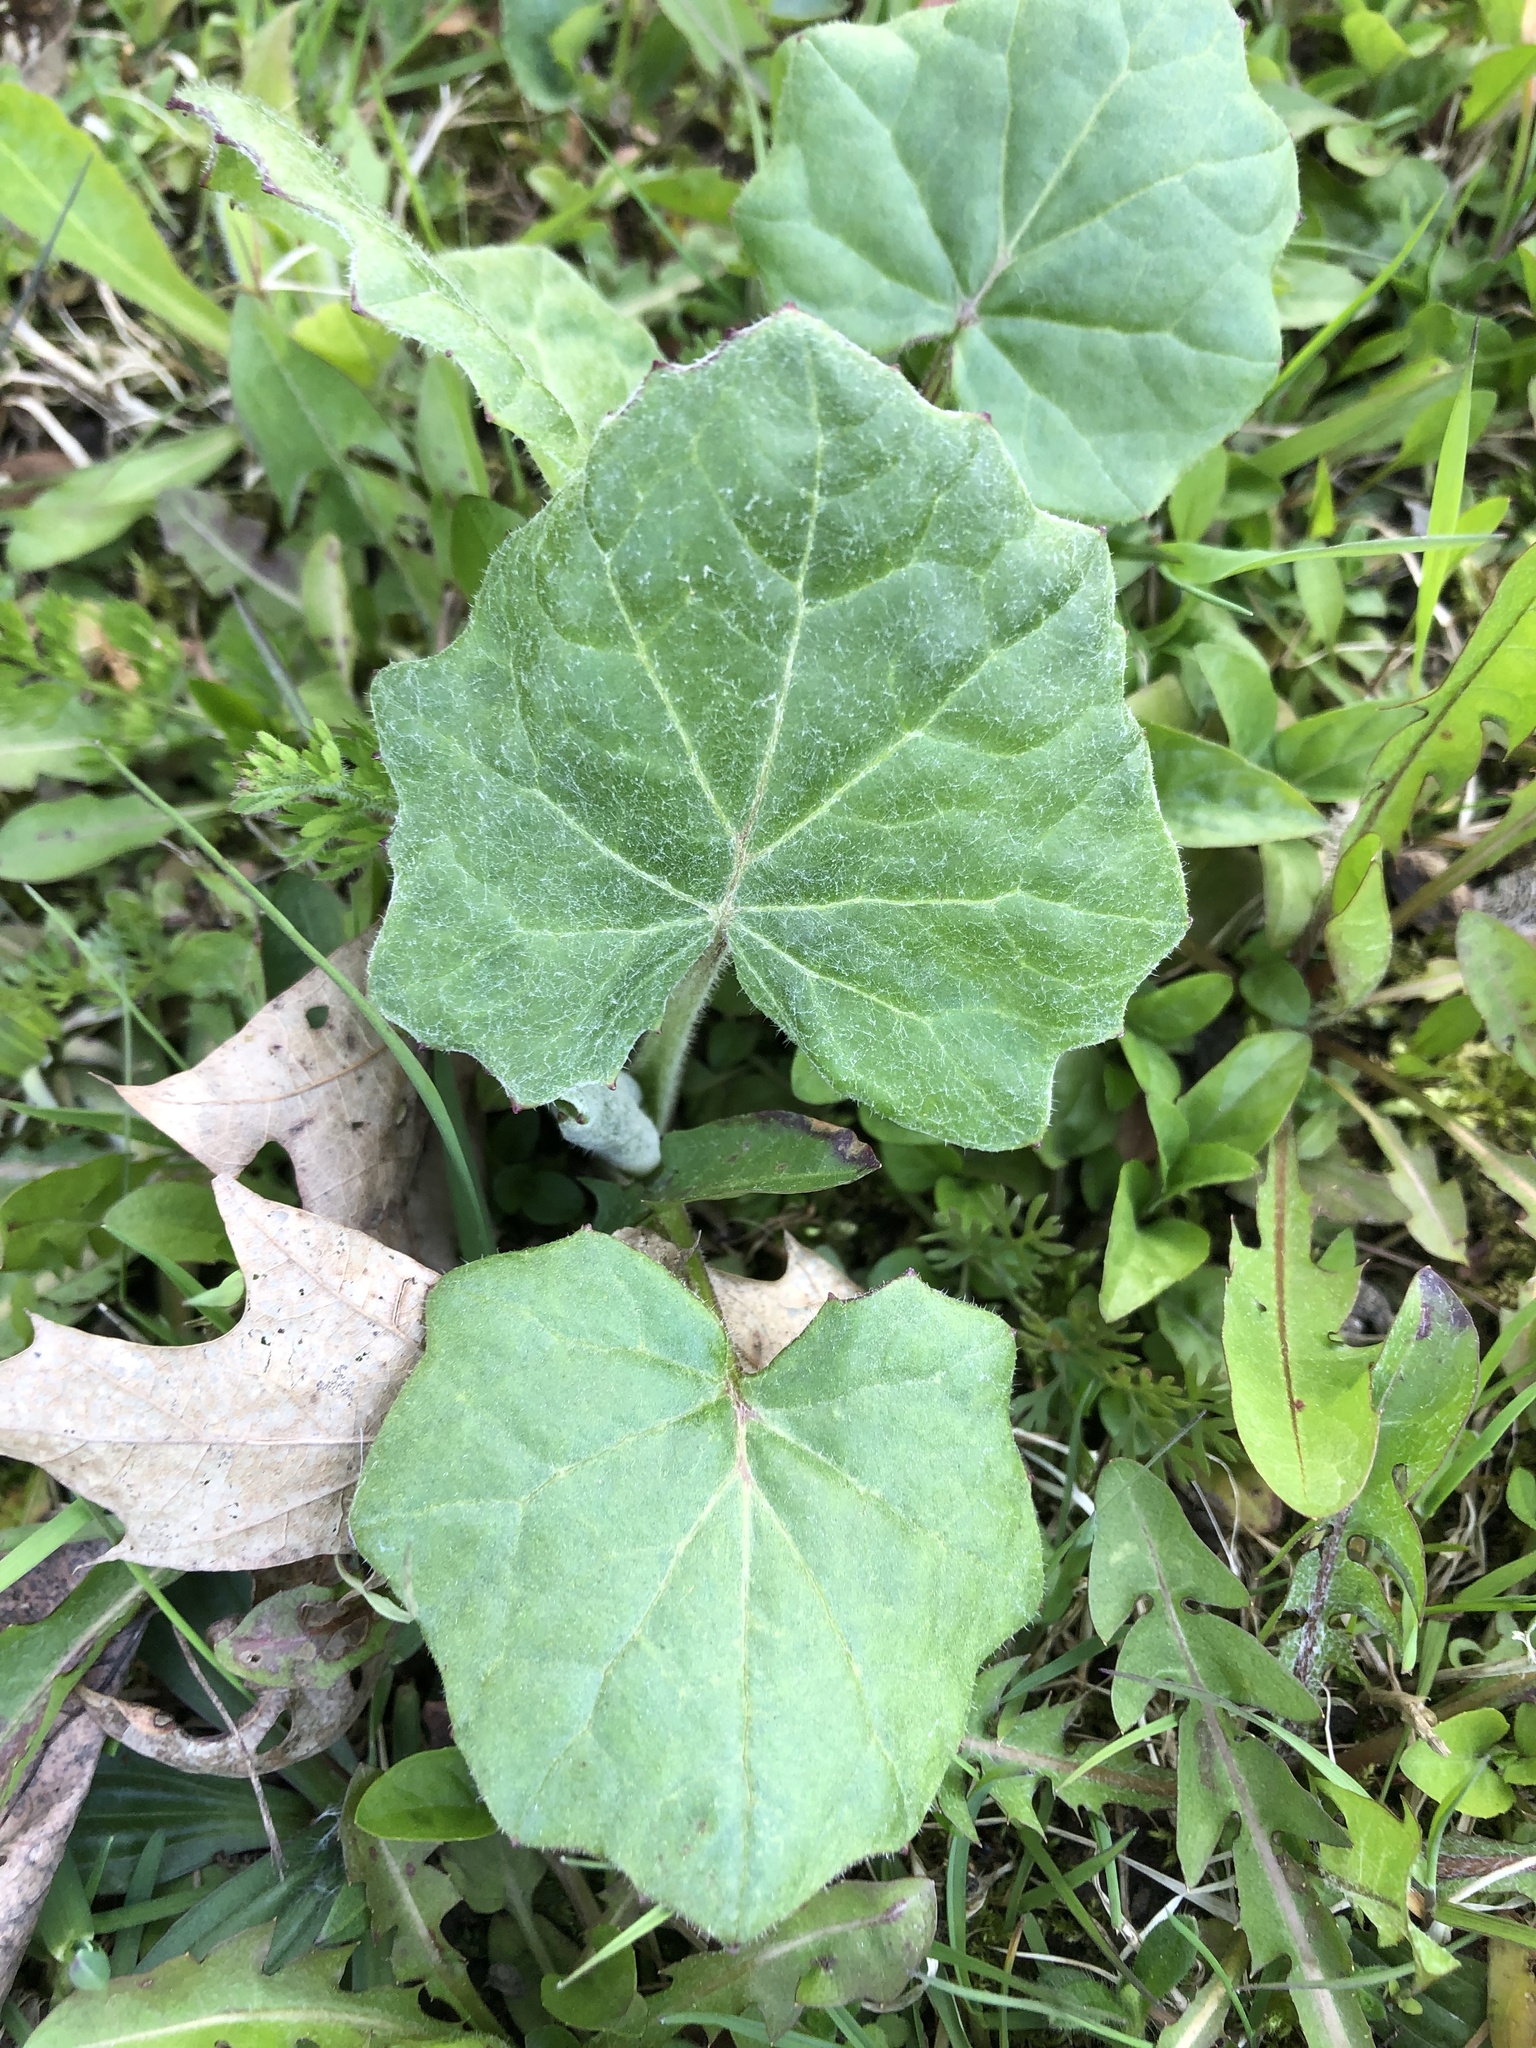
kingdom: Plantae
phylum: Tracheophyta
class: Magnoliopsida
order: Asterales
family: Asteraceae
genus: Tussilago
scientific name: Tussilago farfara
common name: Coltsfoot
